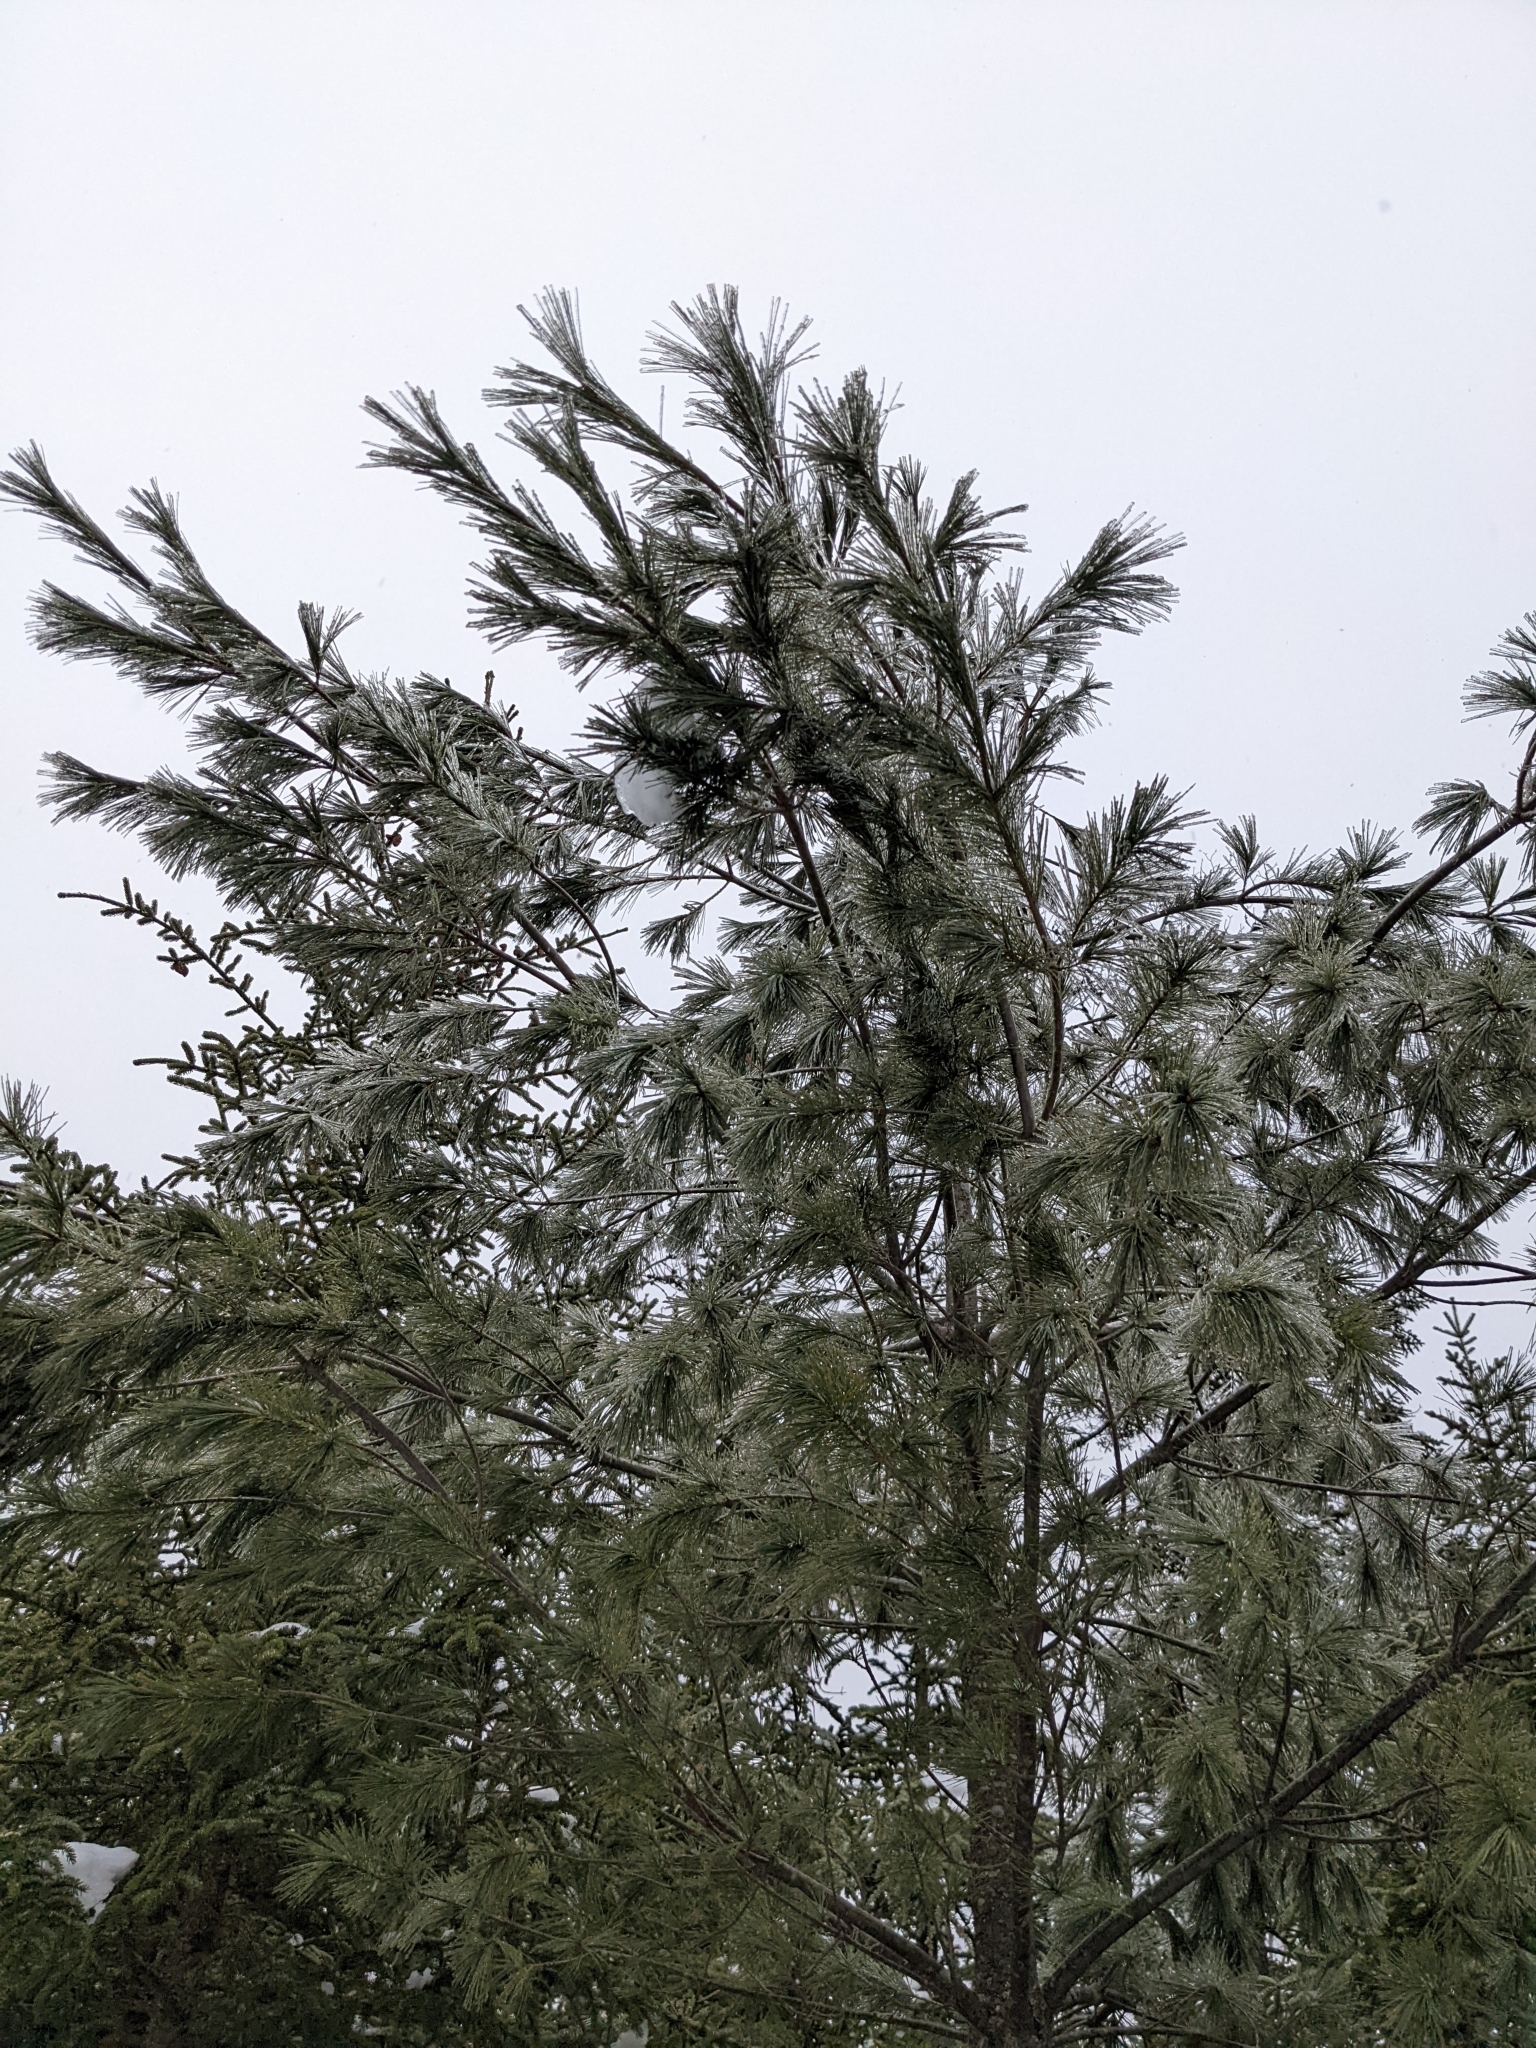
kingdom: Plantae
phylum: Tracheophyta
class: Pinopsida
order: Pinales
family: Pinaceae
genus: Pinus
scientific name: Pinus strobus
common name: Weymouth pine
